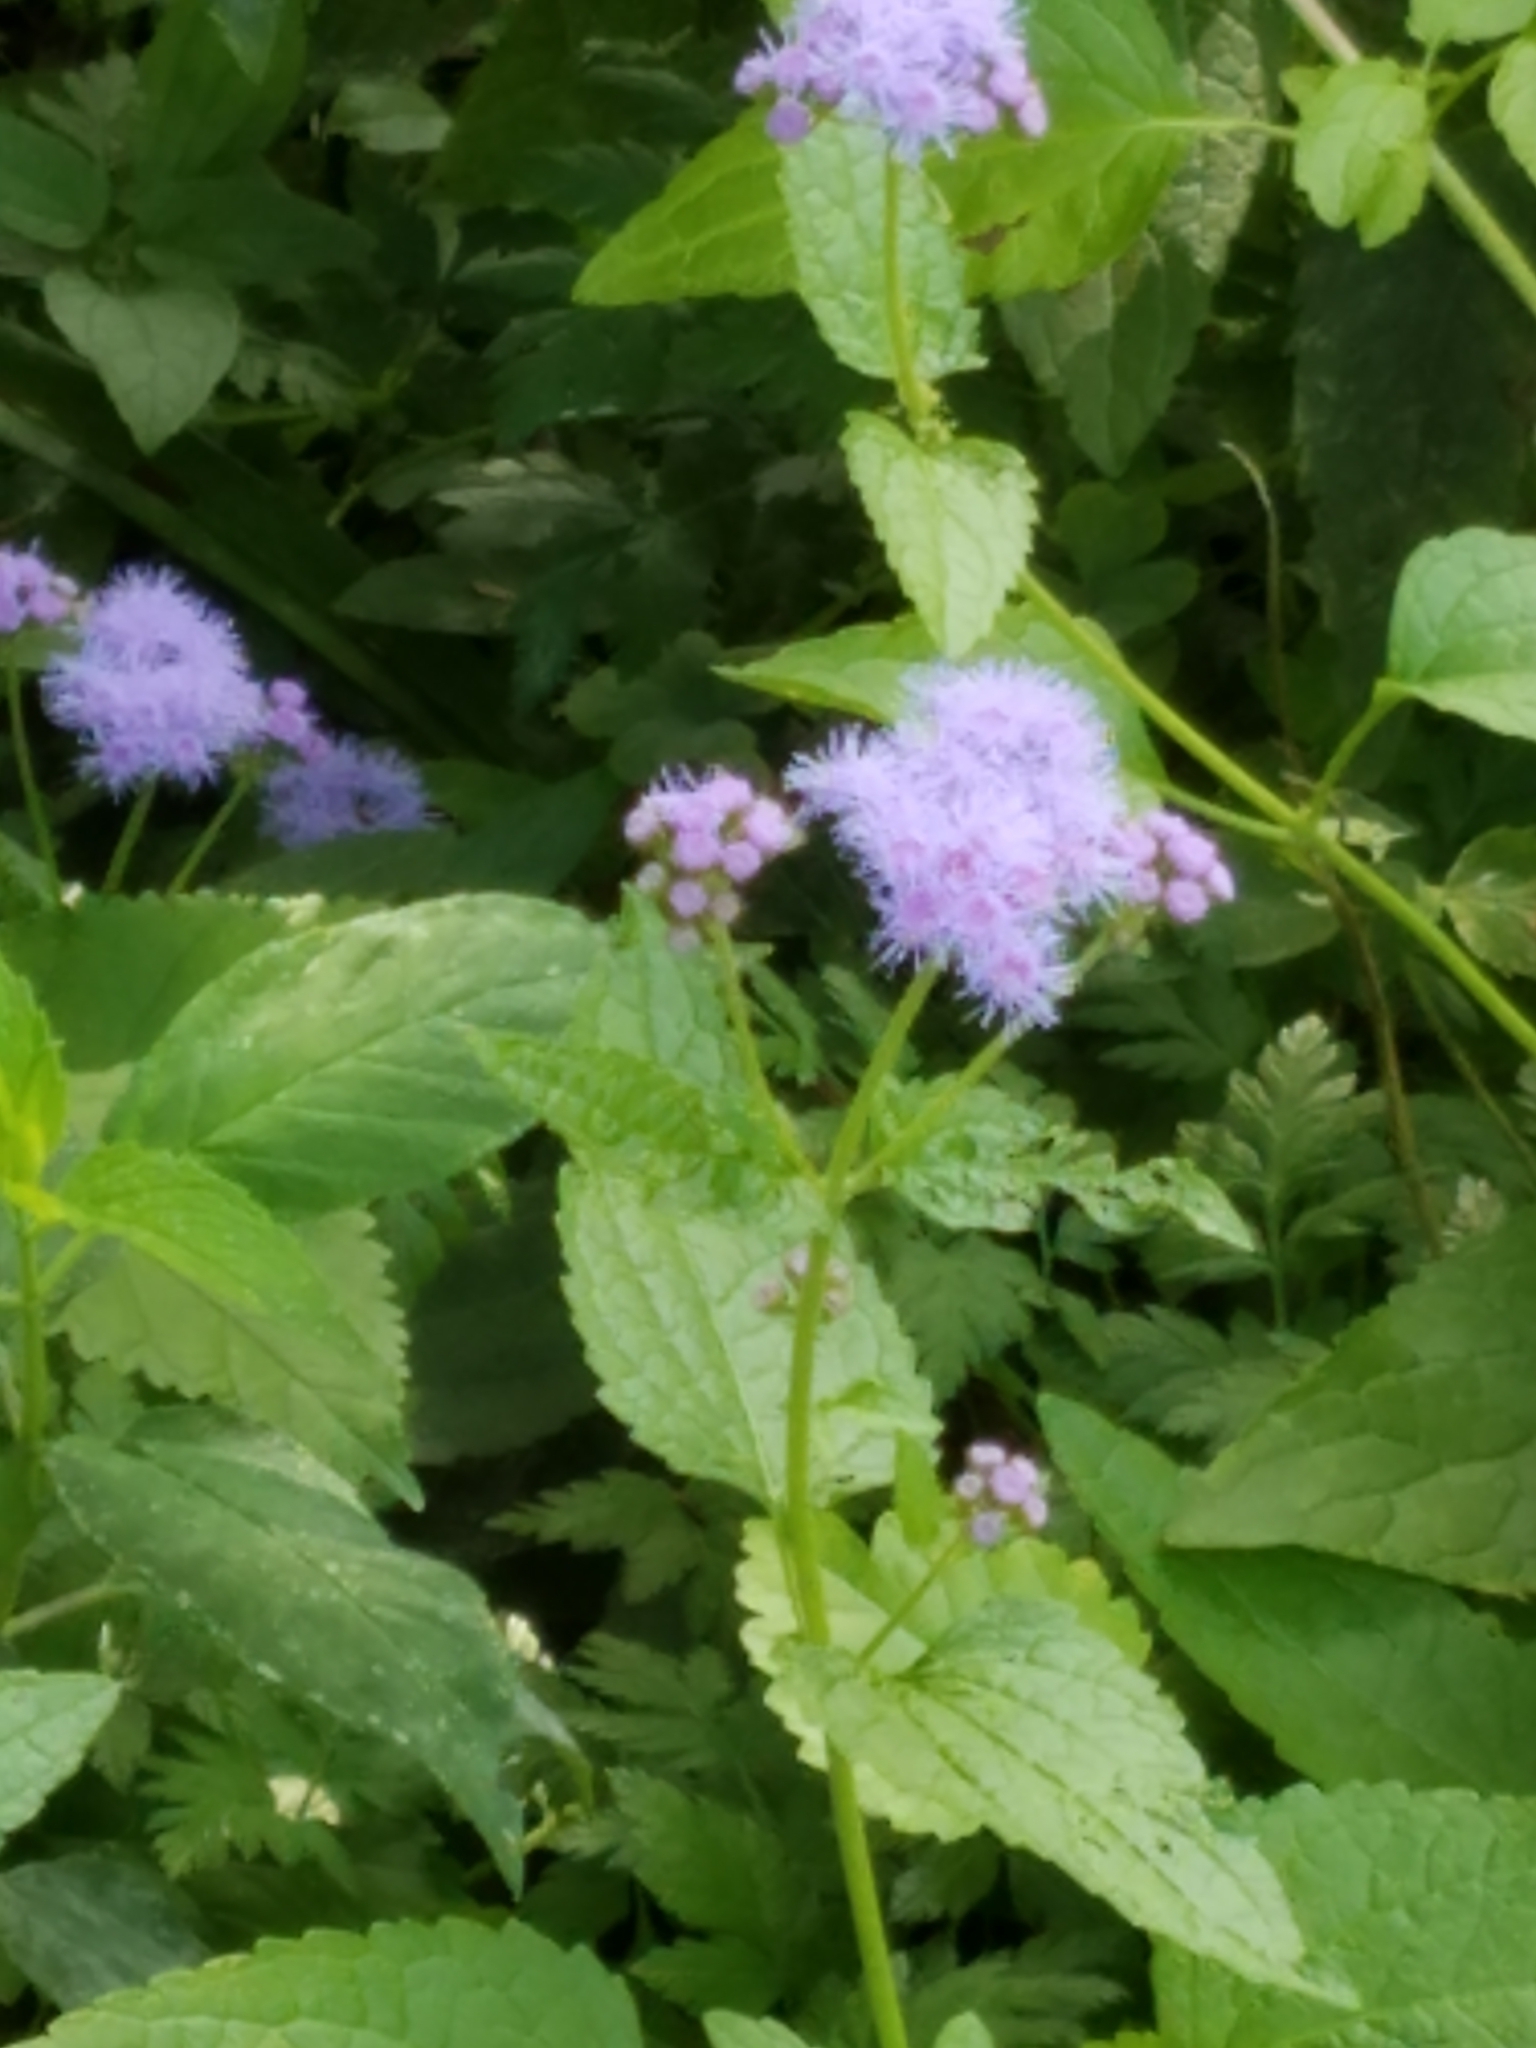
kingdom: Plantae
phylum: Tracheophyta
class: Magnoliopsida
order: Asterales
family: Asteraceae
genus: Conoclinium
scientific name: Conoclinium coelestinum
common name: Blue mistflower
